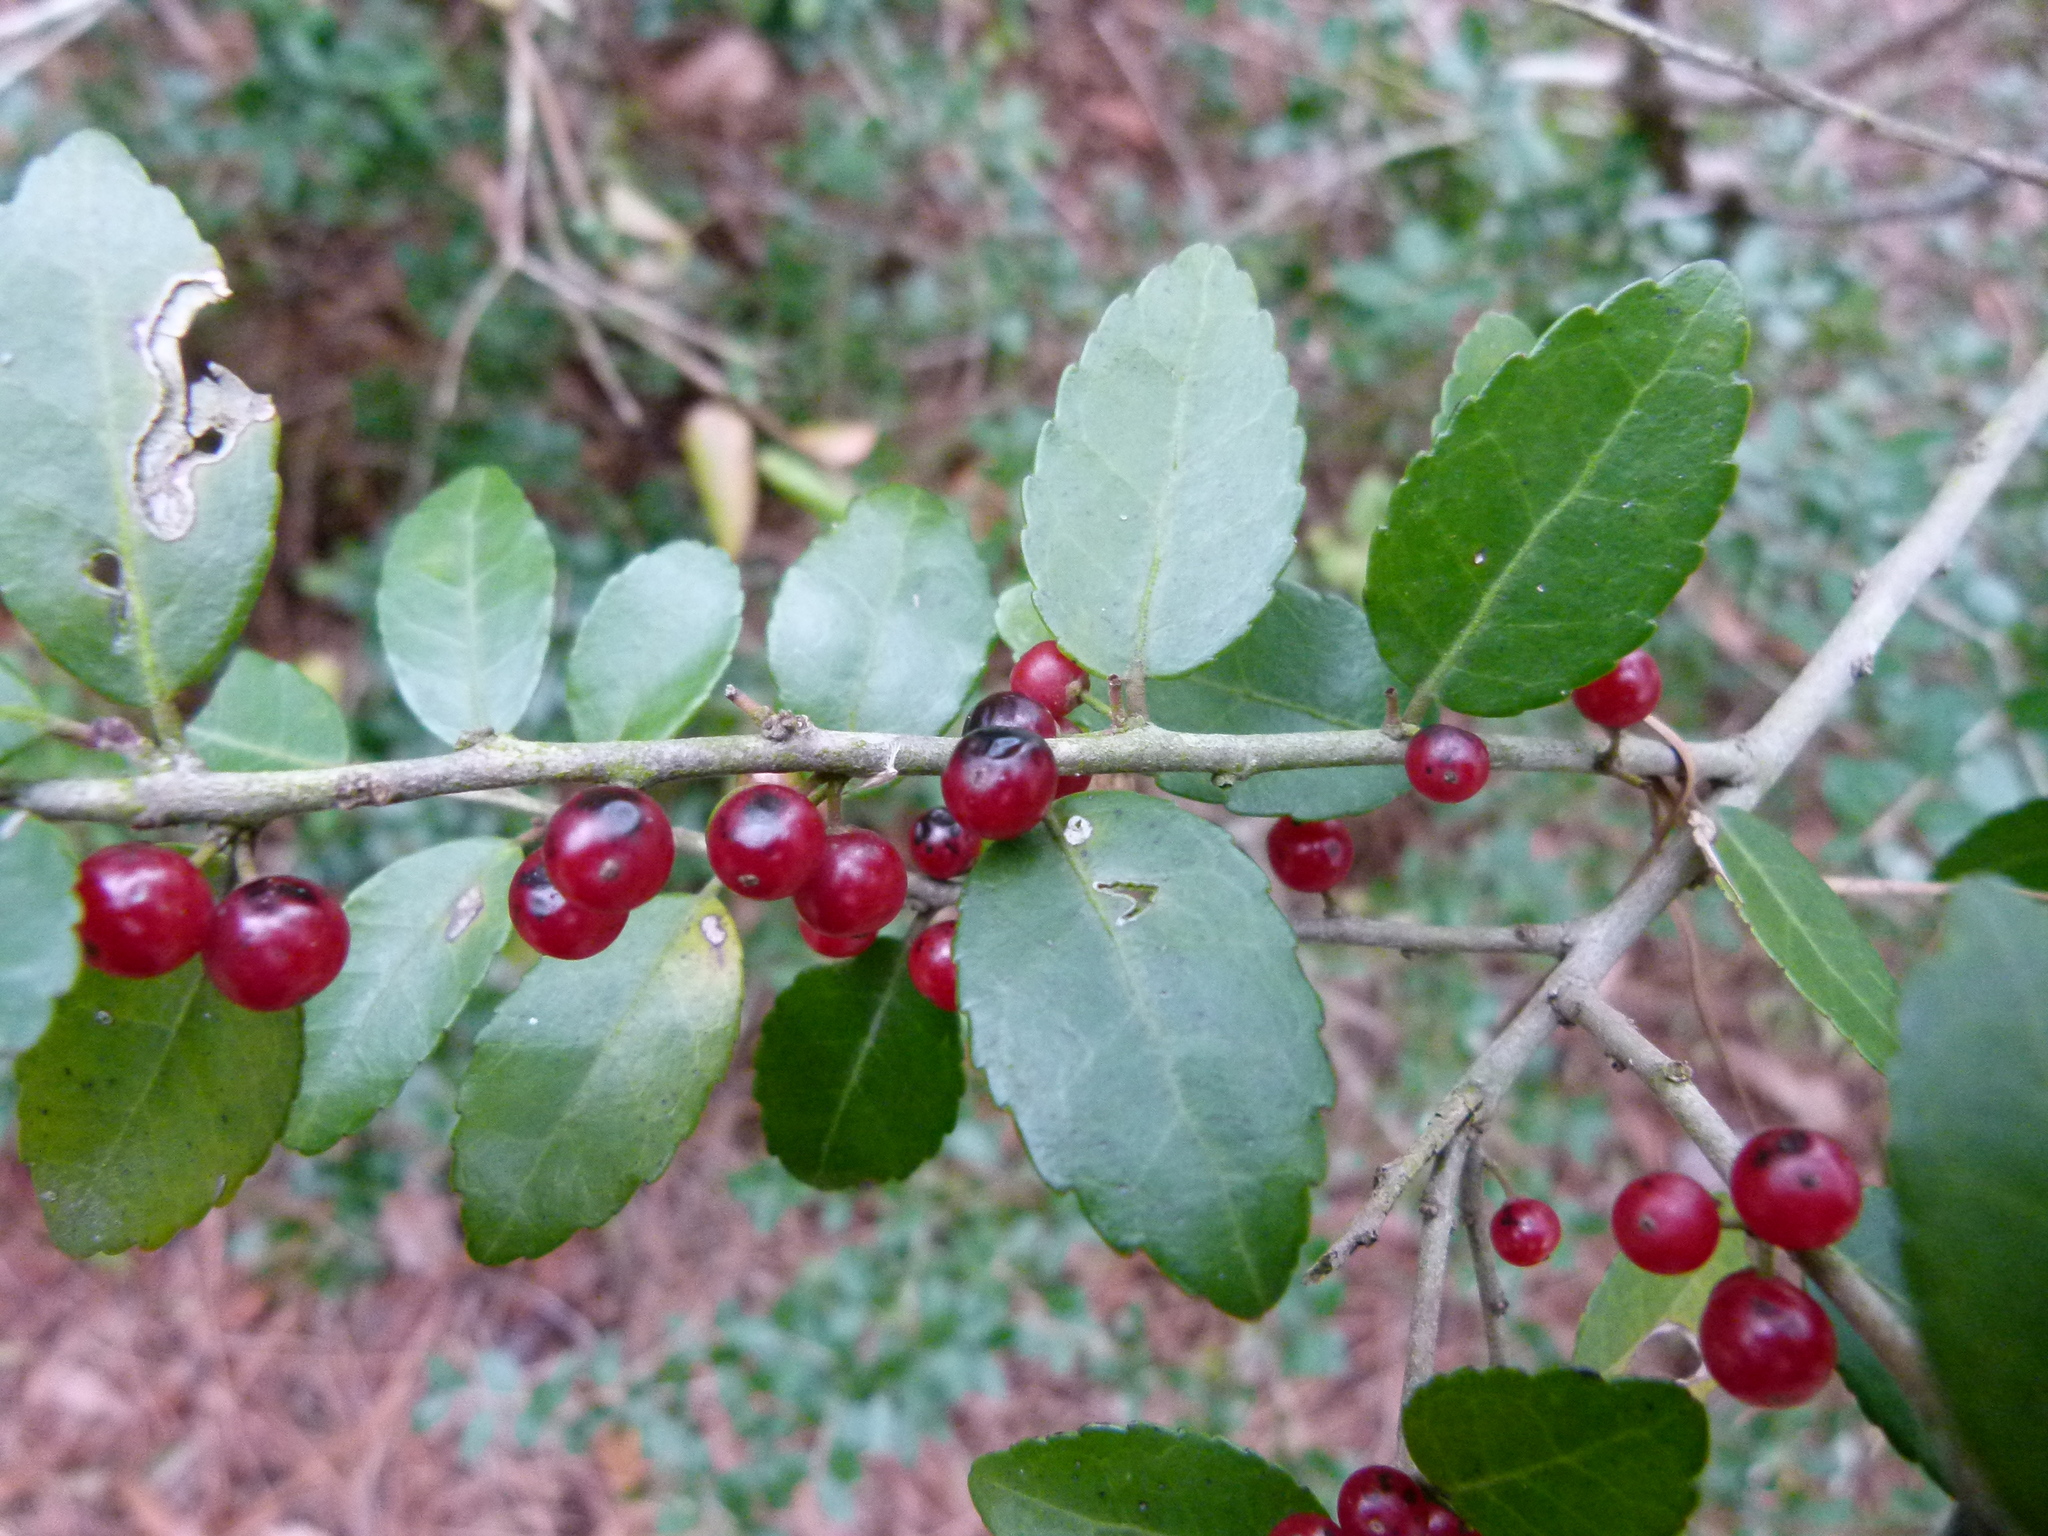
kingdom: Plantae
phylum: Tracheophyta
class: Magnoliopsida
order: Aquifoliales
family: Aquifoliaceae
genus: Ilex
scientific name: Ilex vomitoria
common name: Yaupon holly
